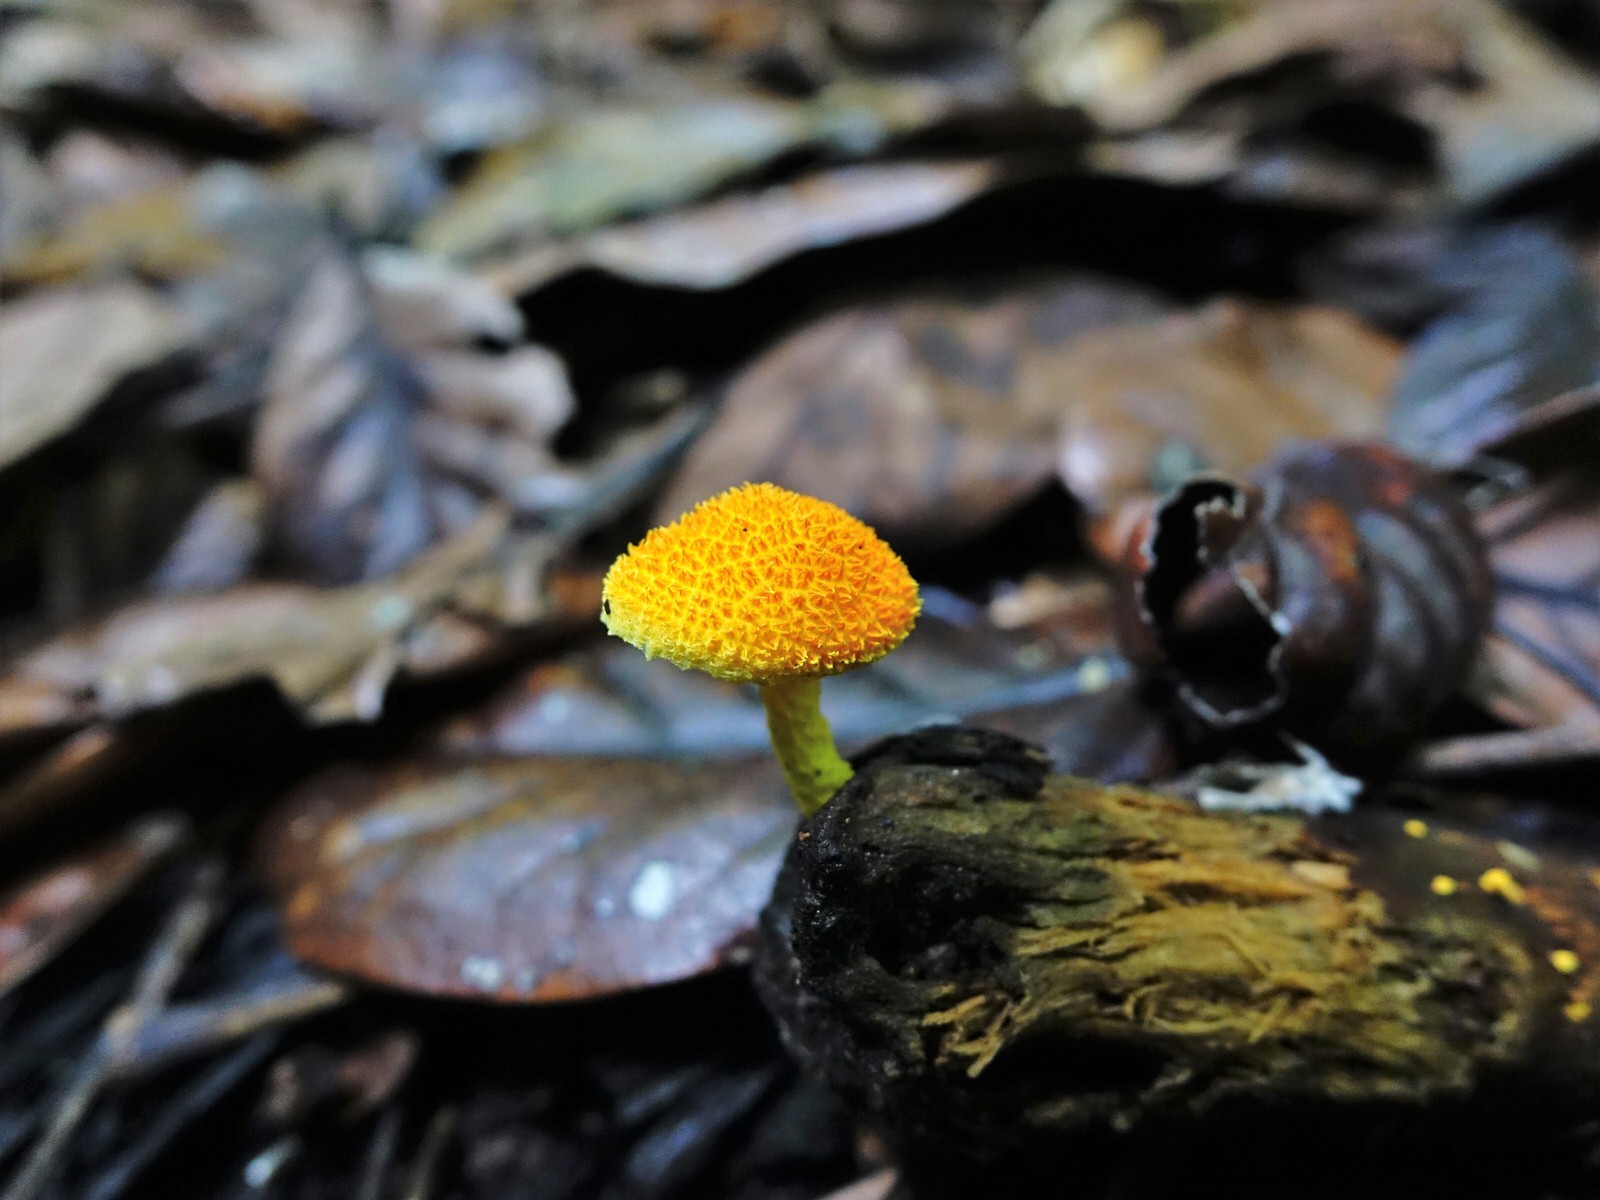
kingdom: Fungi
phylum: Basidiomycota
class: Agaricomycetes
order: Agaricales
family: Physalacriaceae
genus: Cyptotrama
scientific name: Cyptotrama asprata
